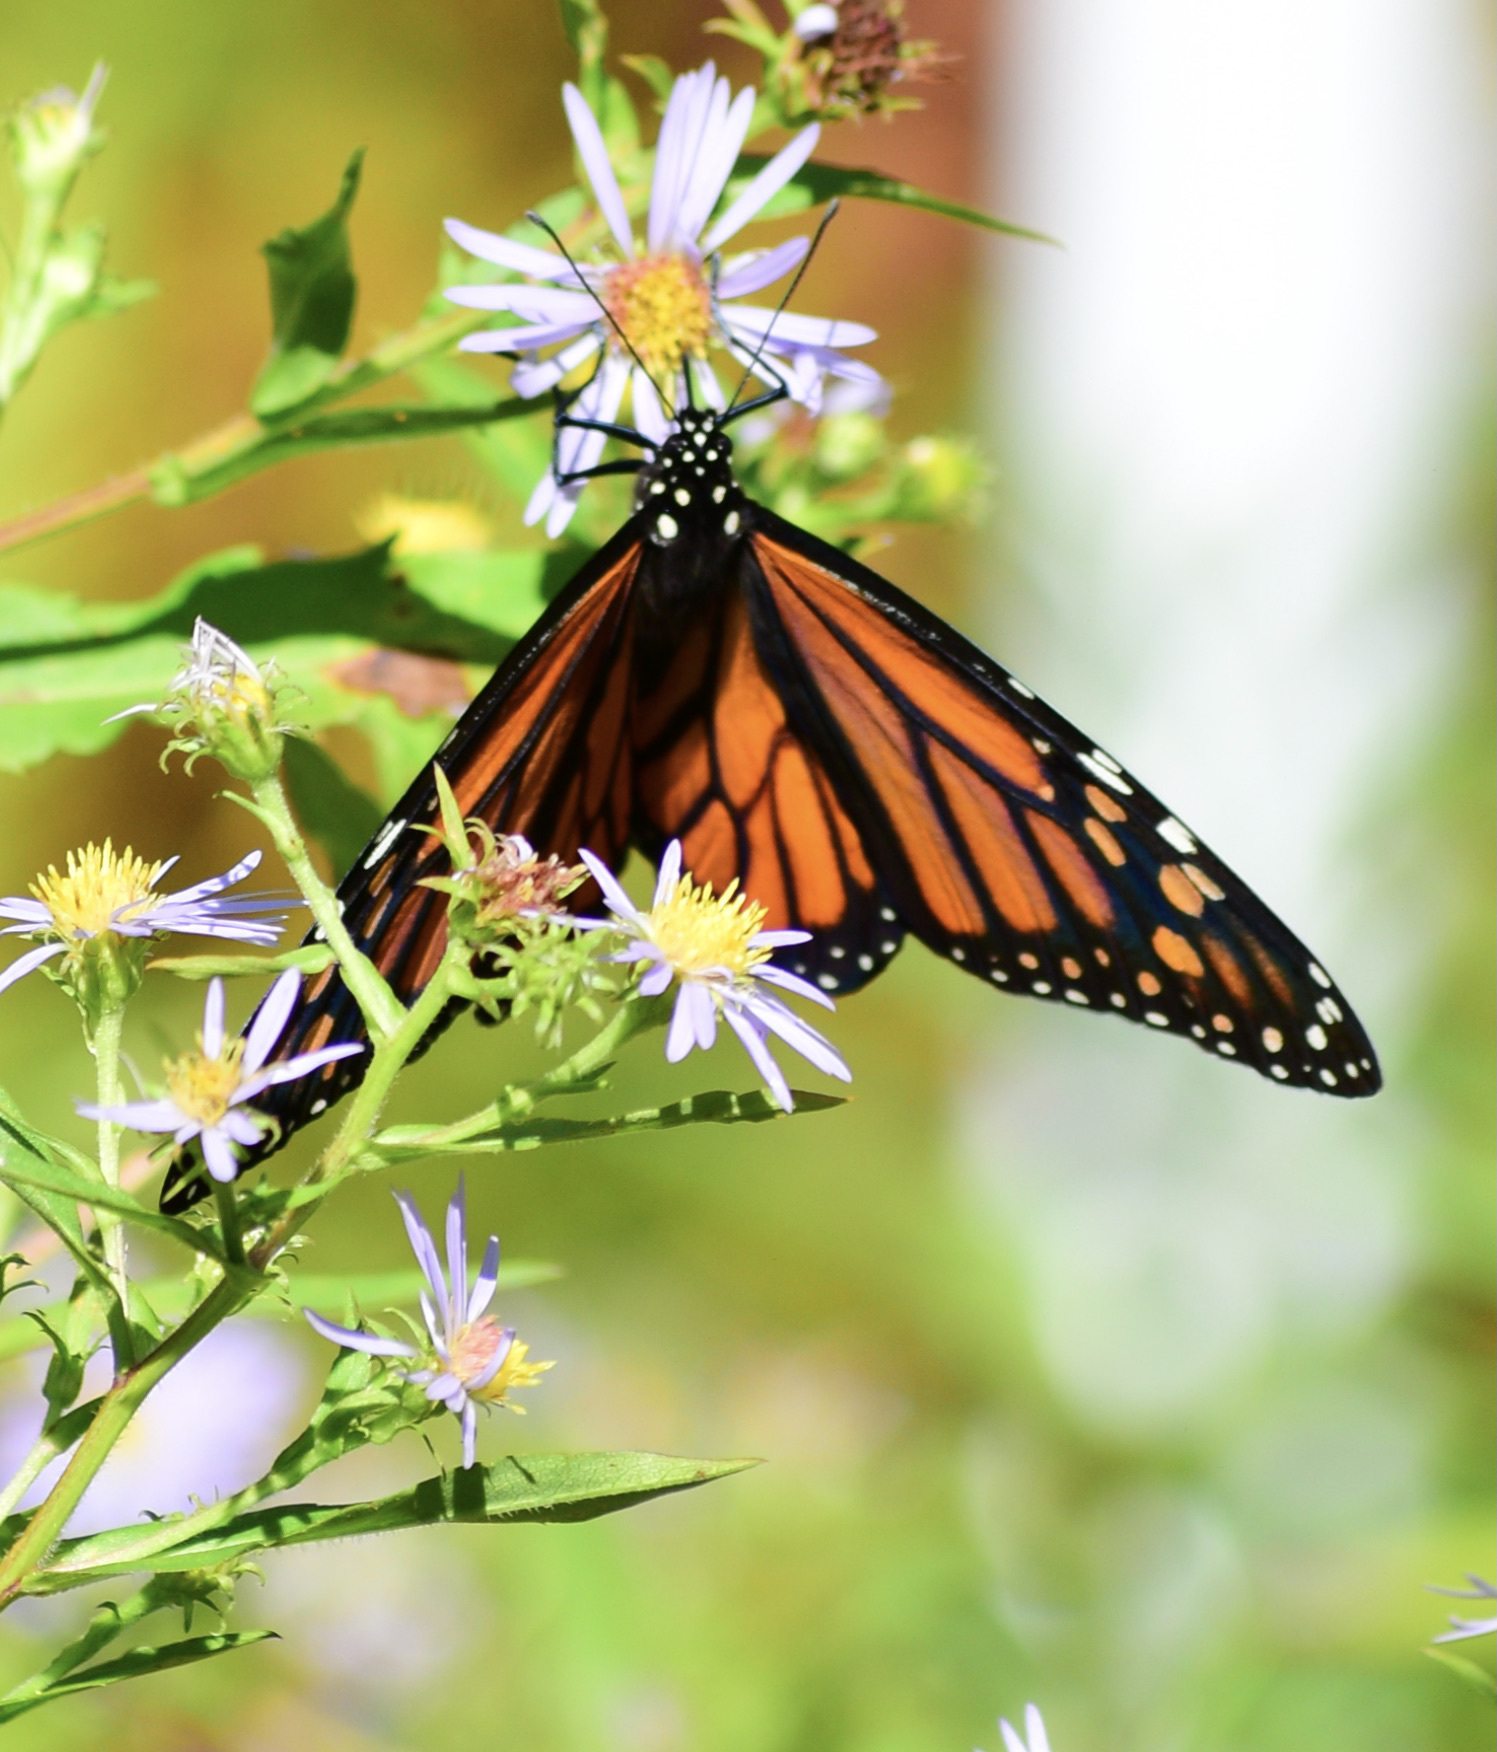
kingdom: Animalia
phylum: Arthropoda
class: Insecta
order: Lepidoptera
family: Nymphalidae
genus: Danaus
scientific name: Danaus plexippus
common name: Monarch
